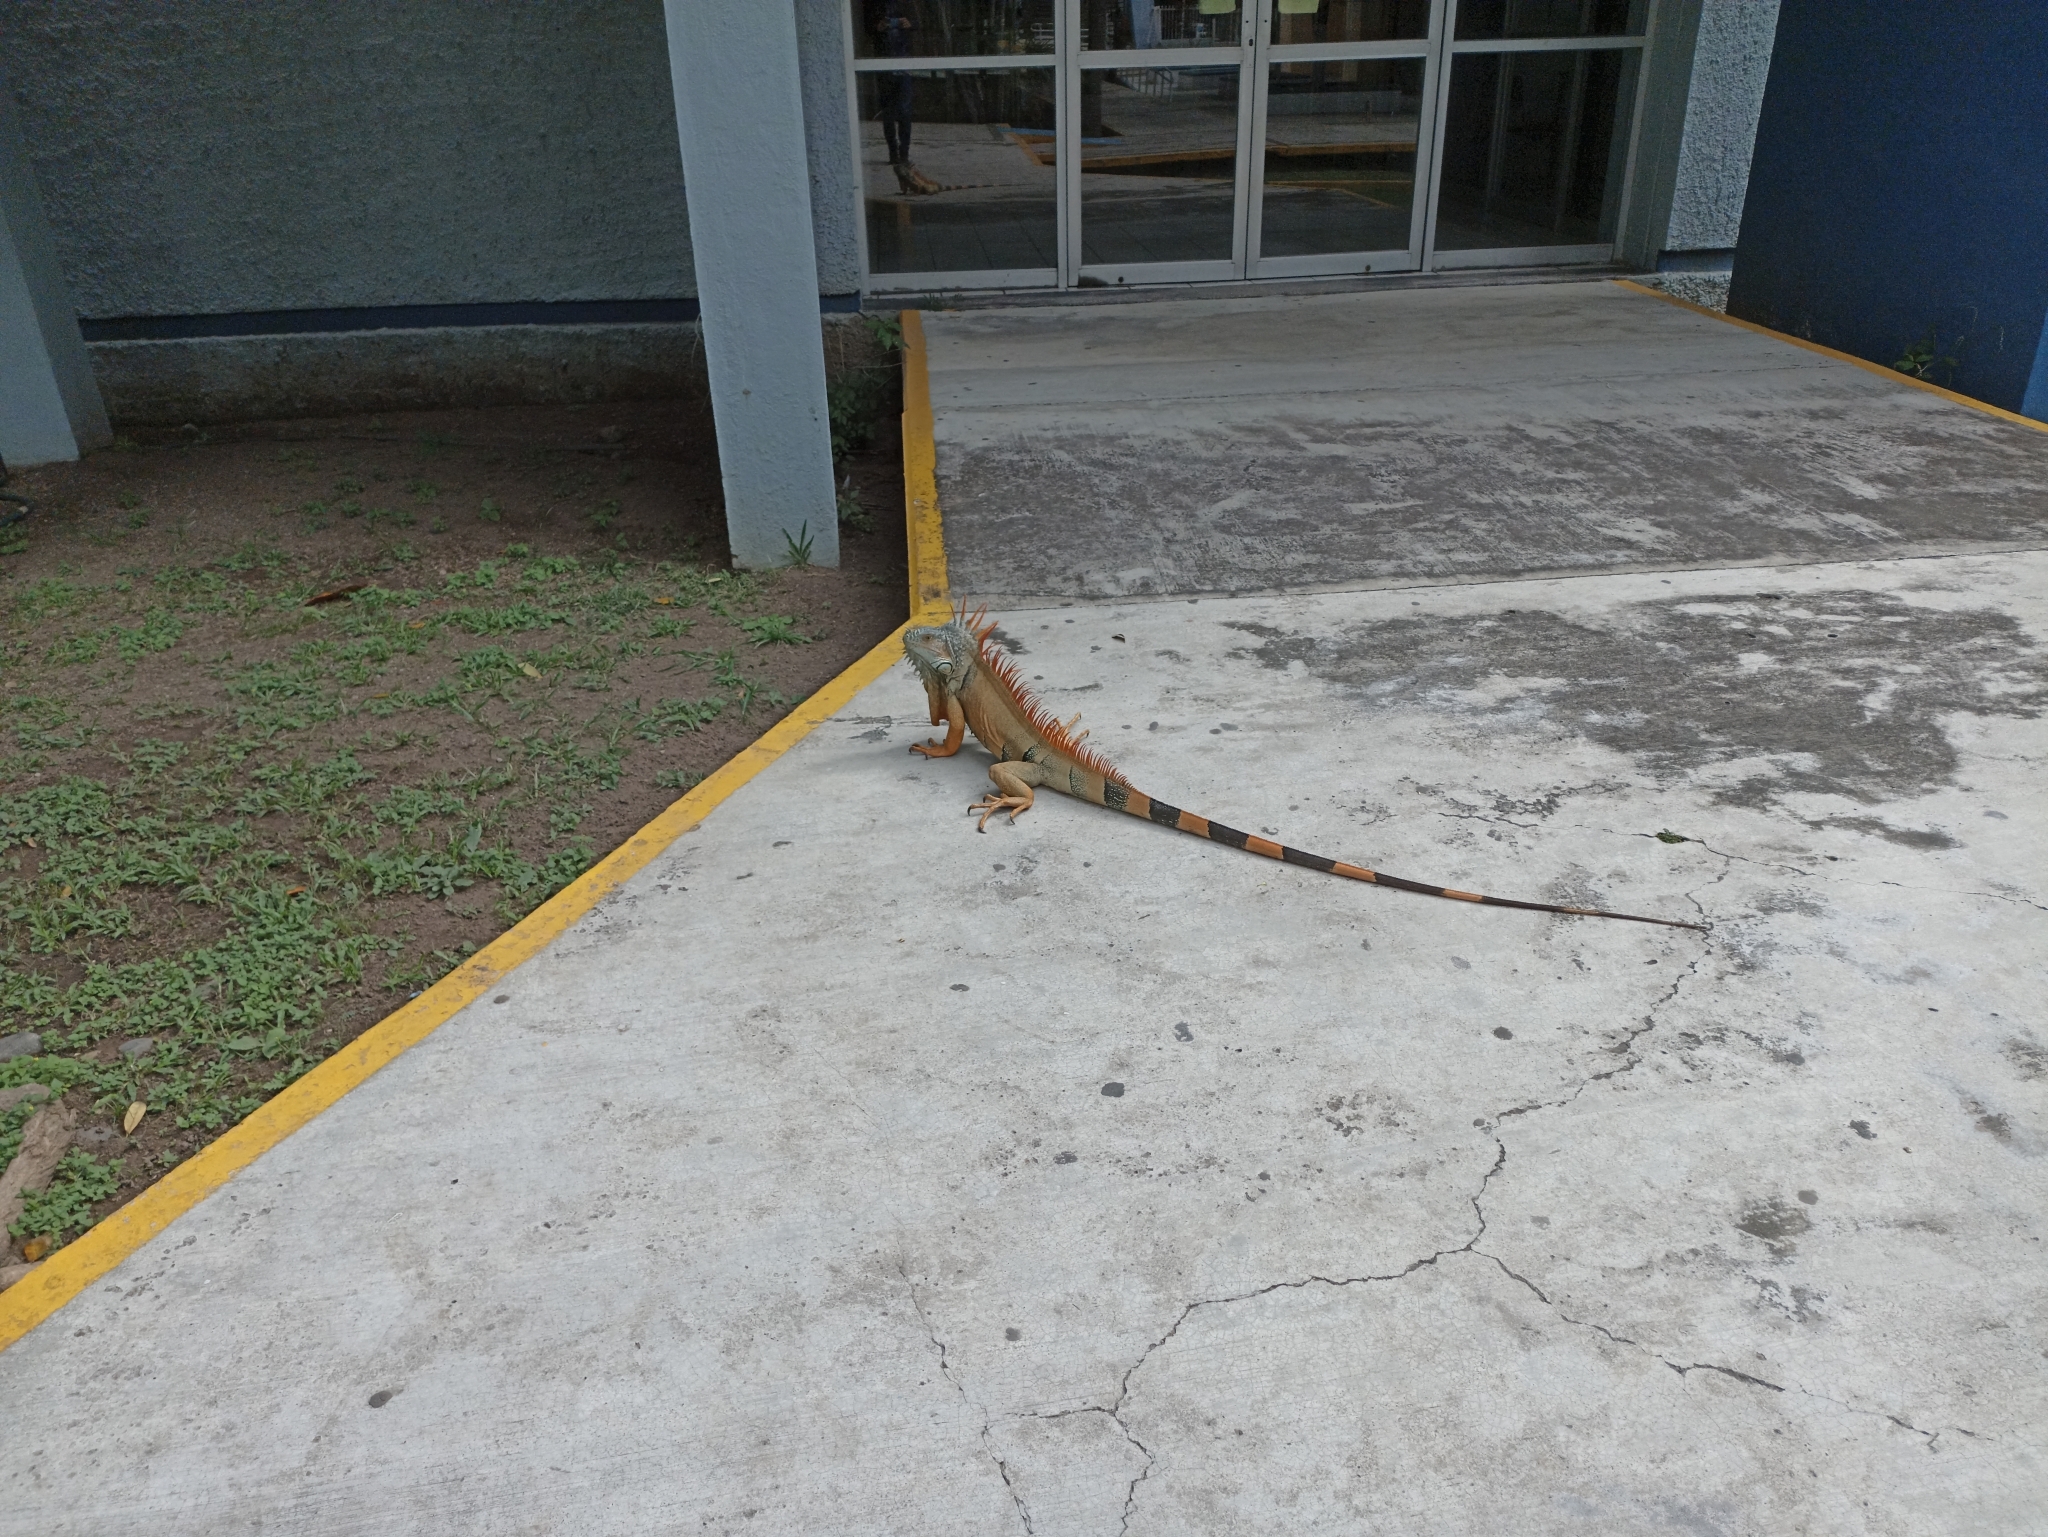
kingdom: Animalia
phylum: Chordata
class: Squamata
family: Iguanidae
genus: Iguana
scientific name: Iguana iguana
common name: Green iguana
